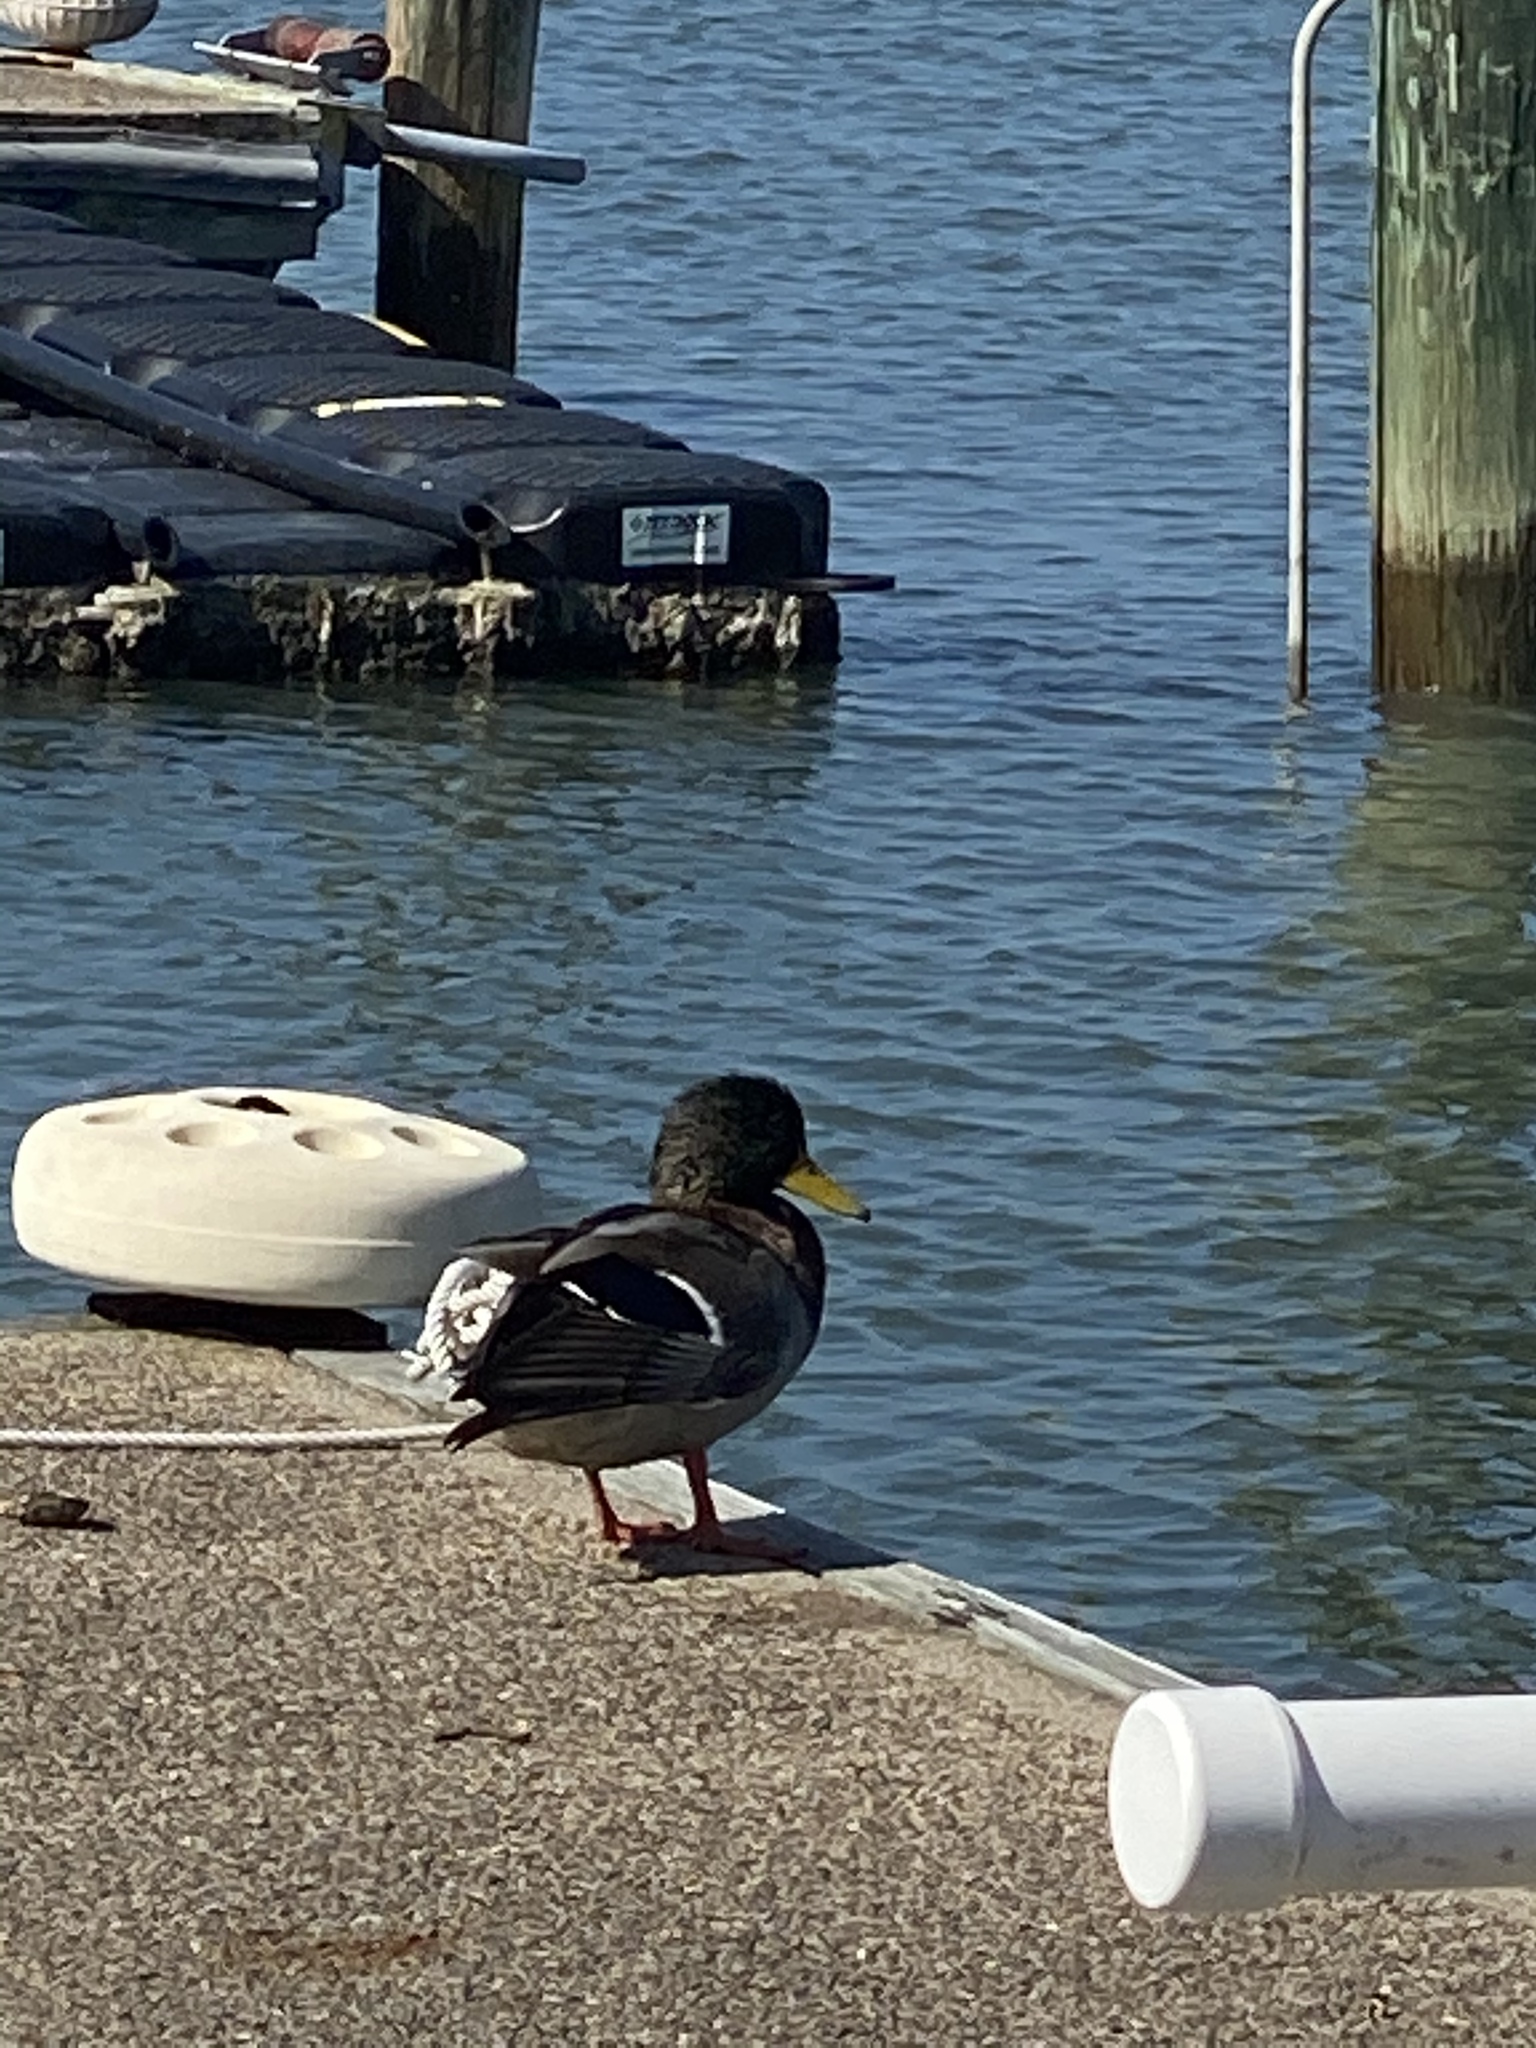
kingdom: Animalia
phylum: Chordata
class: Aves
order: Anseriformes
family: Anatidae
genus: Anas
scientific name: Anas platyrhynchos
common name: Mallard
